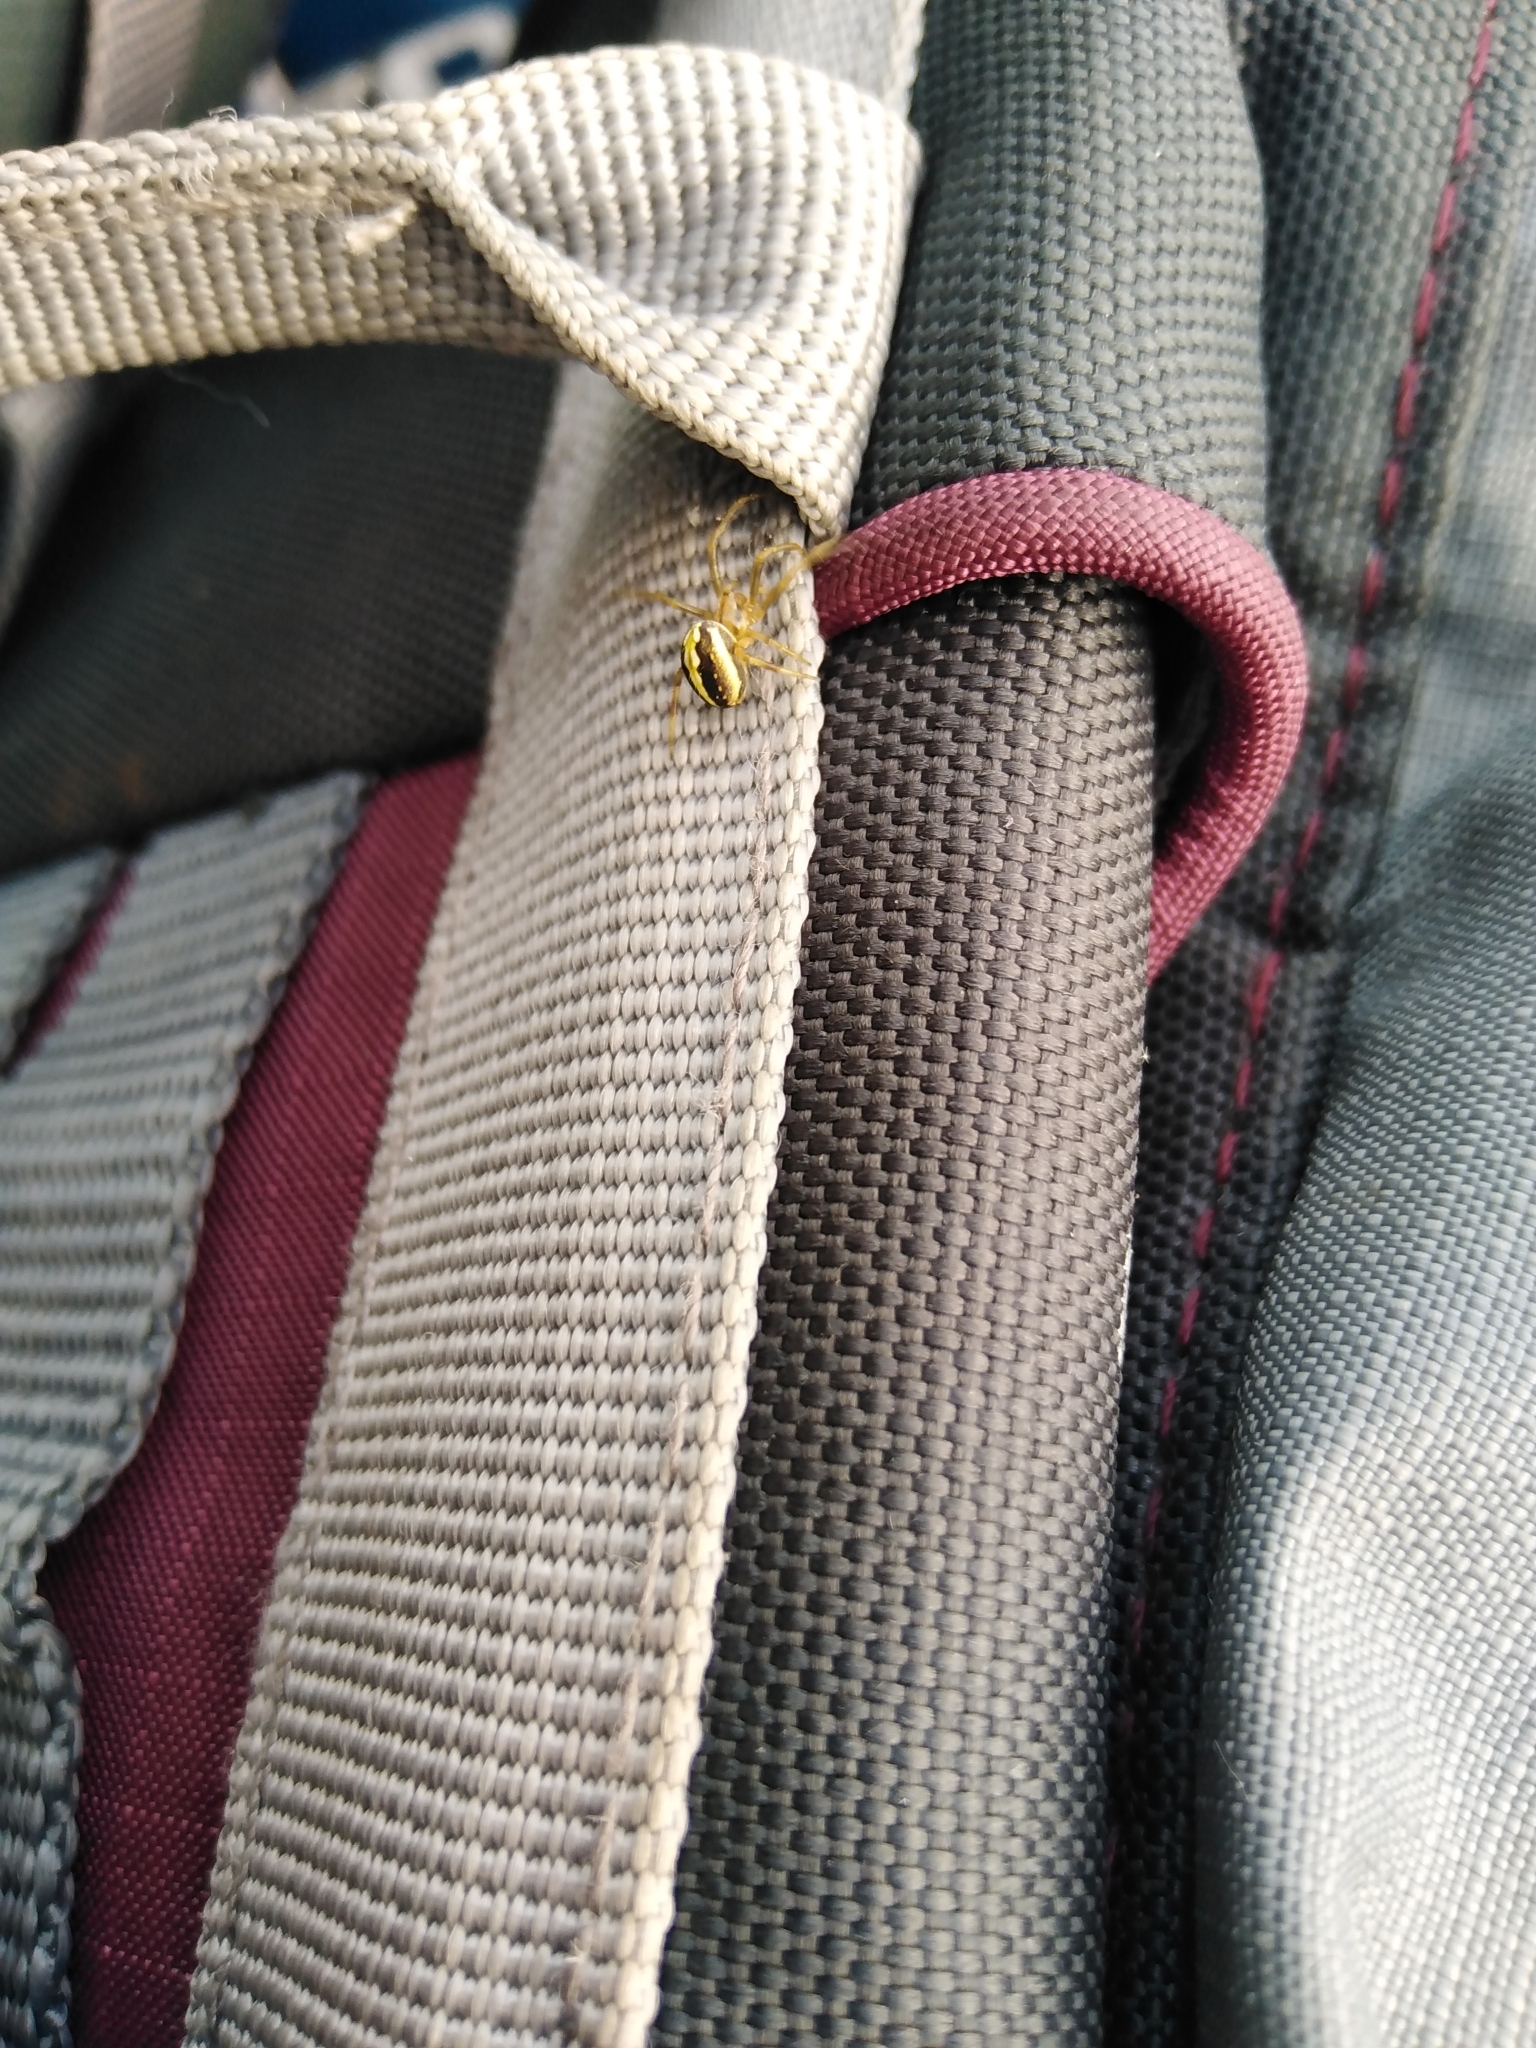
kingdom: Animalia
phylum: Arthropoda
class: Arachnida
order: Araneae
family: Araneidae
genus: Neoscona
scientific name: Neoscona moreli
